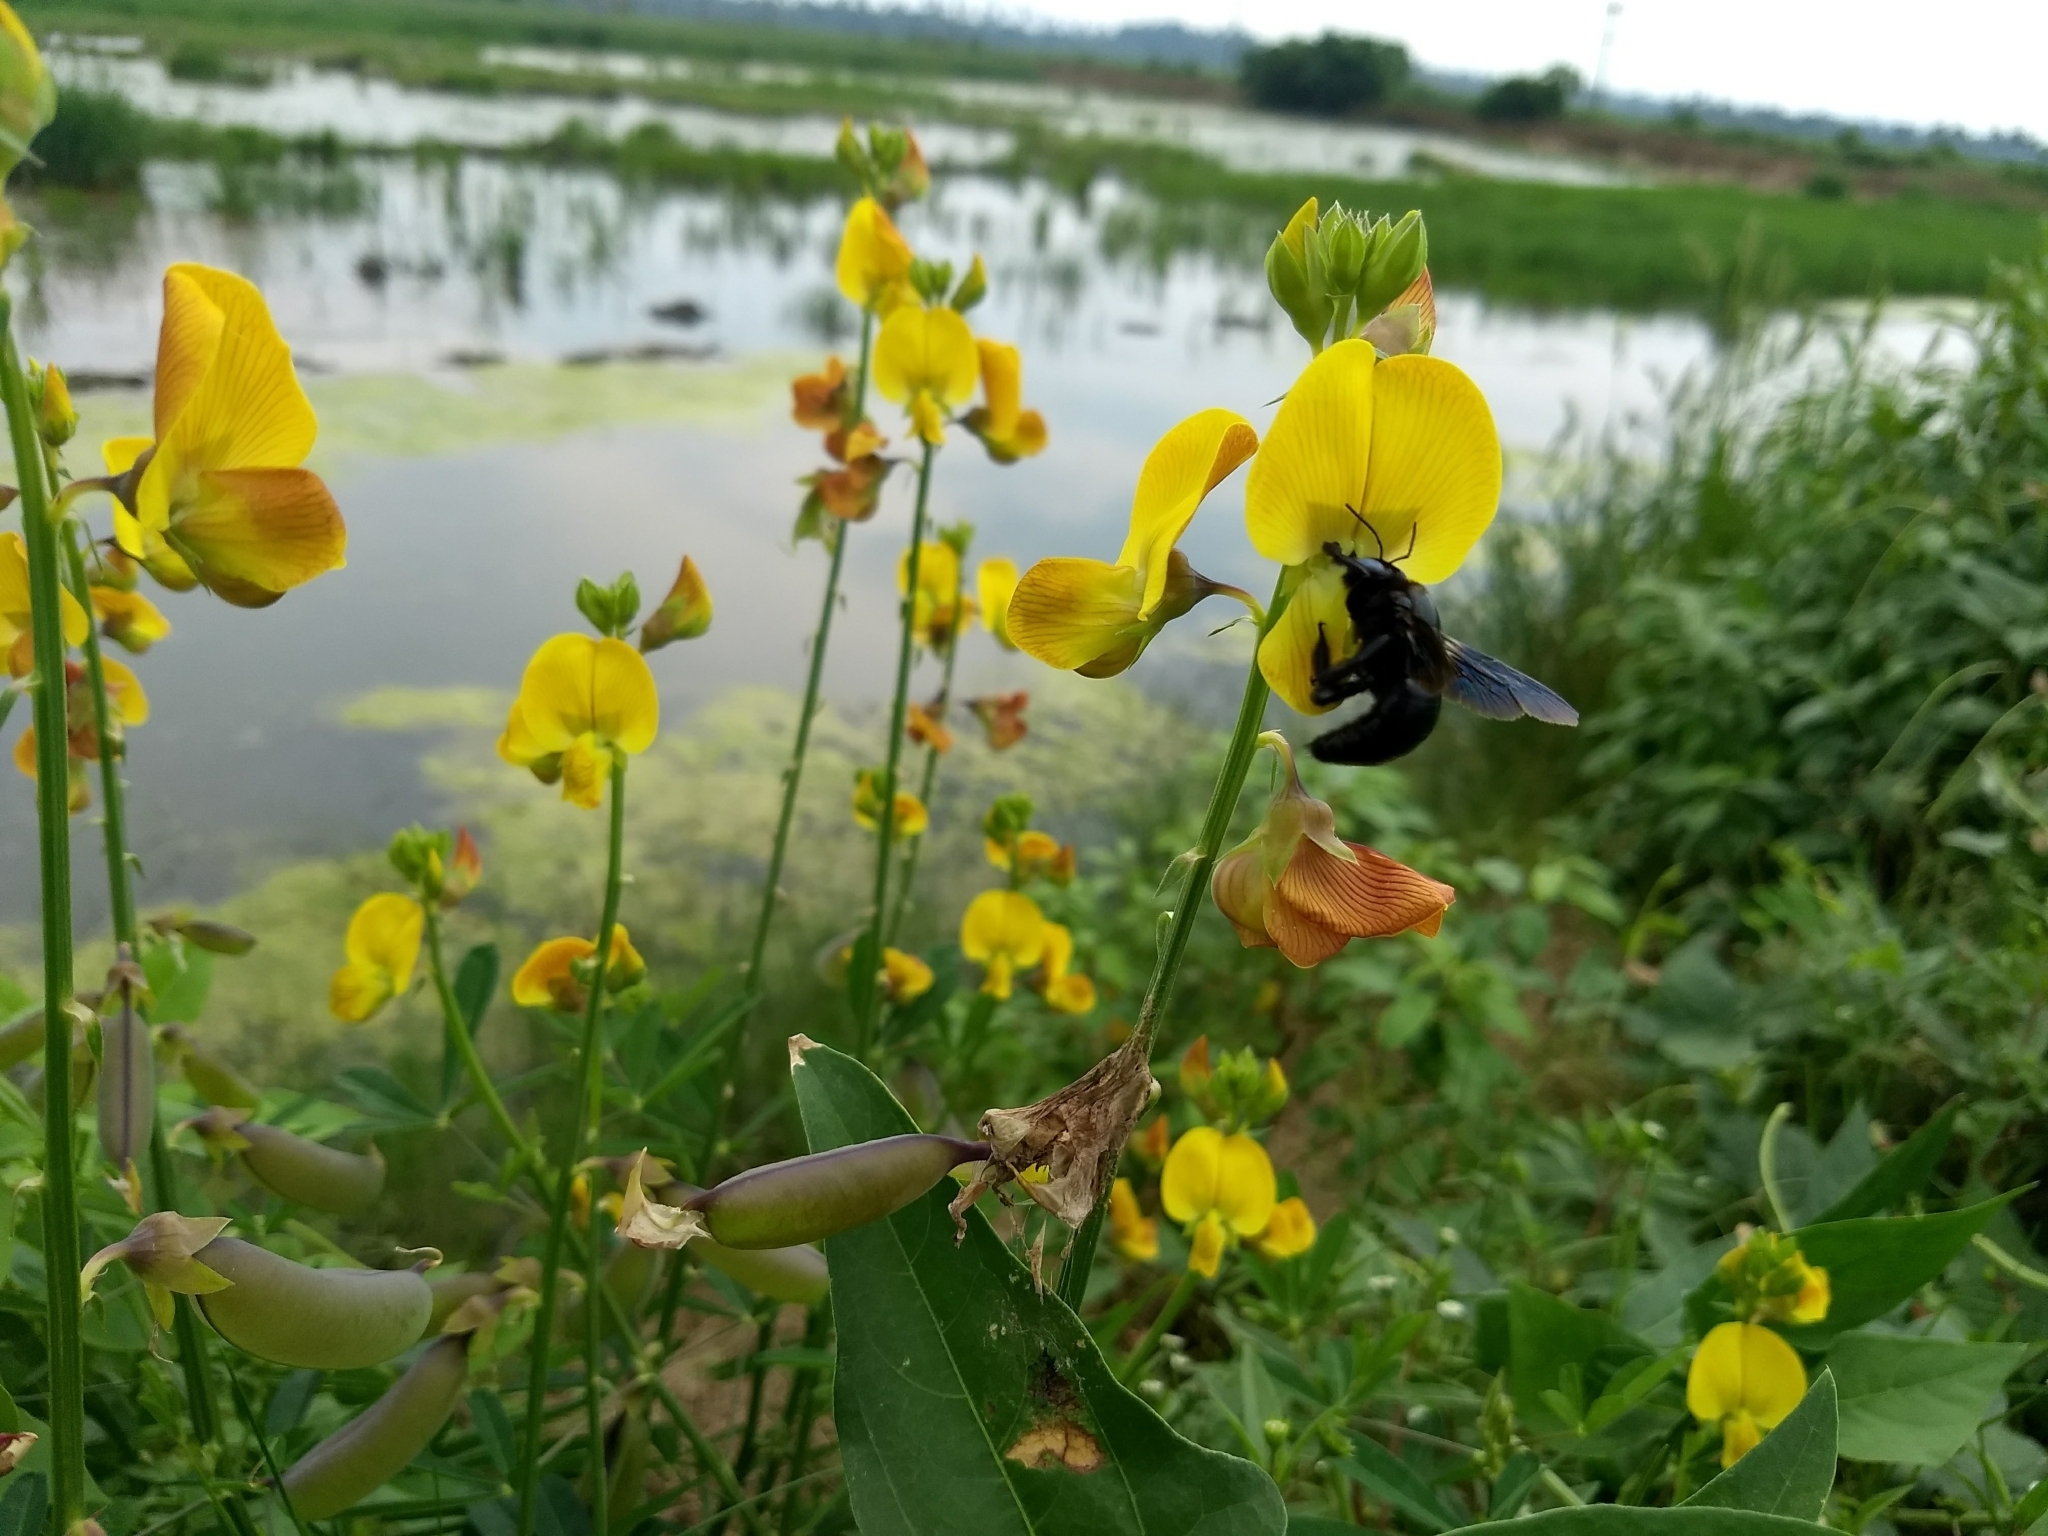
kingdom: Animalia
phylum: Arthropoda
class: Insecta
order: Hymenoptera
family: Apidae
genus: Xylocopa
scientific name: Xylocopa fenestrata
